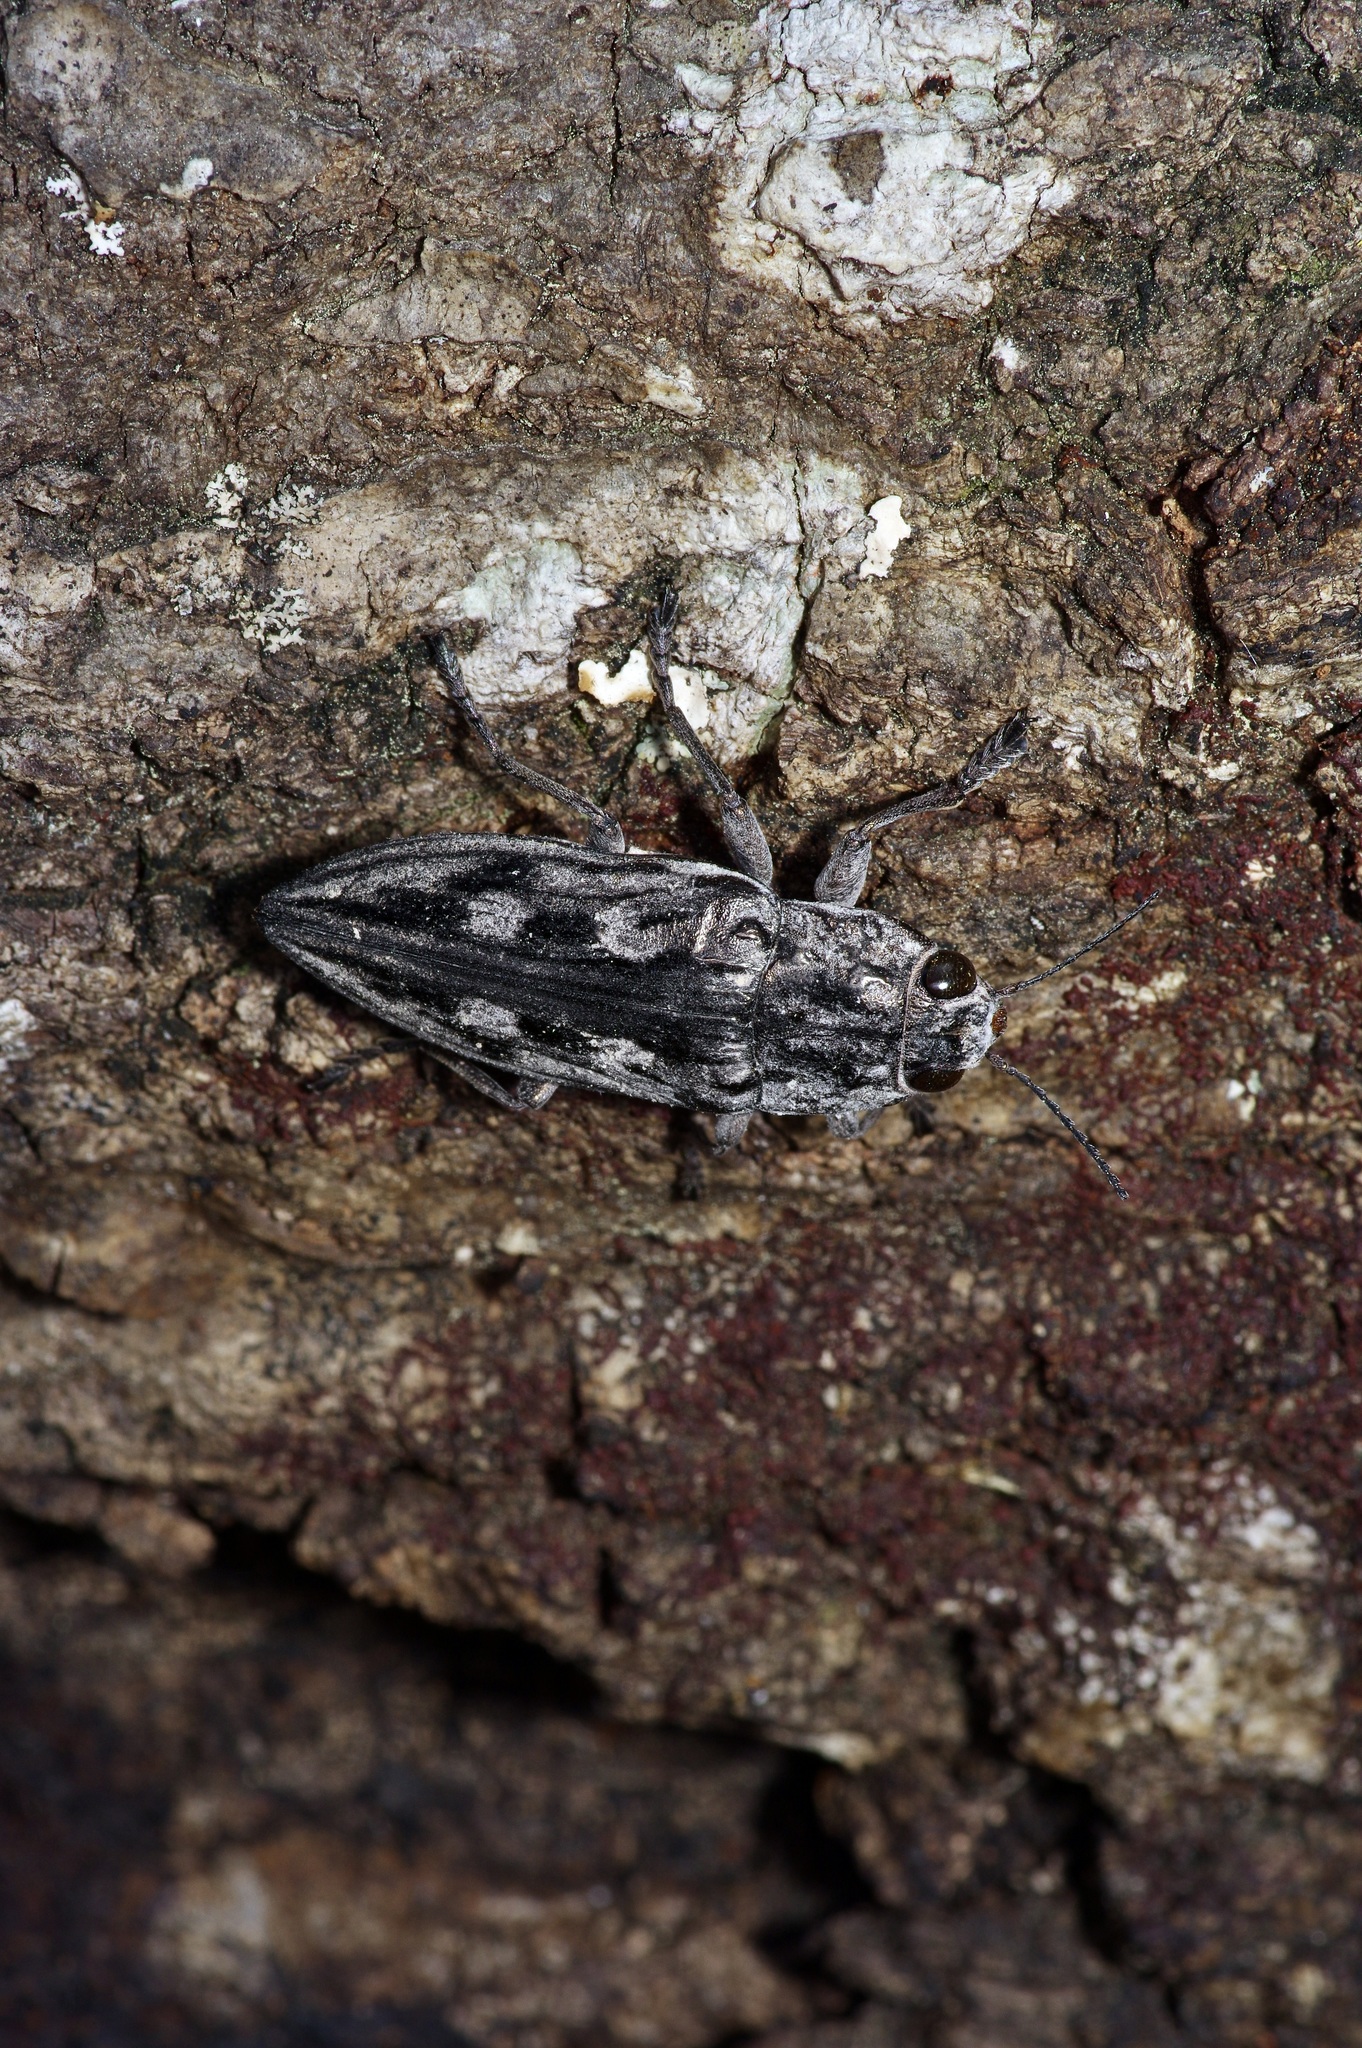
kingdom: Animalia
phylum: Arthropoda
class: Insecta
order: Coleoptera
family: Buprestidae
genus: Chalcophora
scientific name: Chalcophora virginiensis
